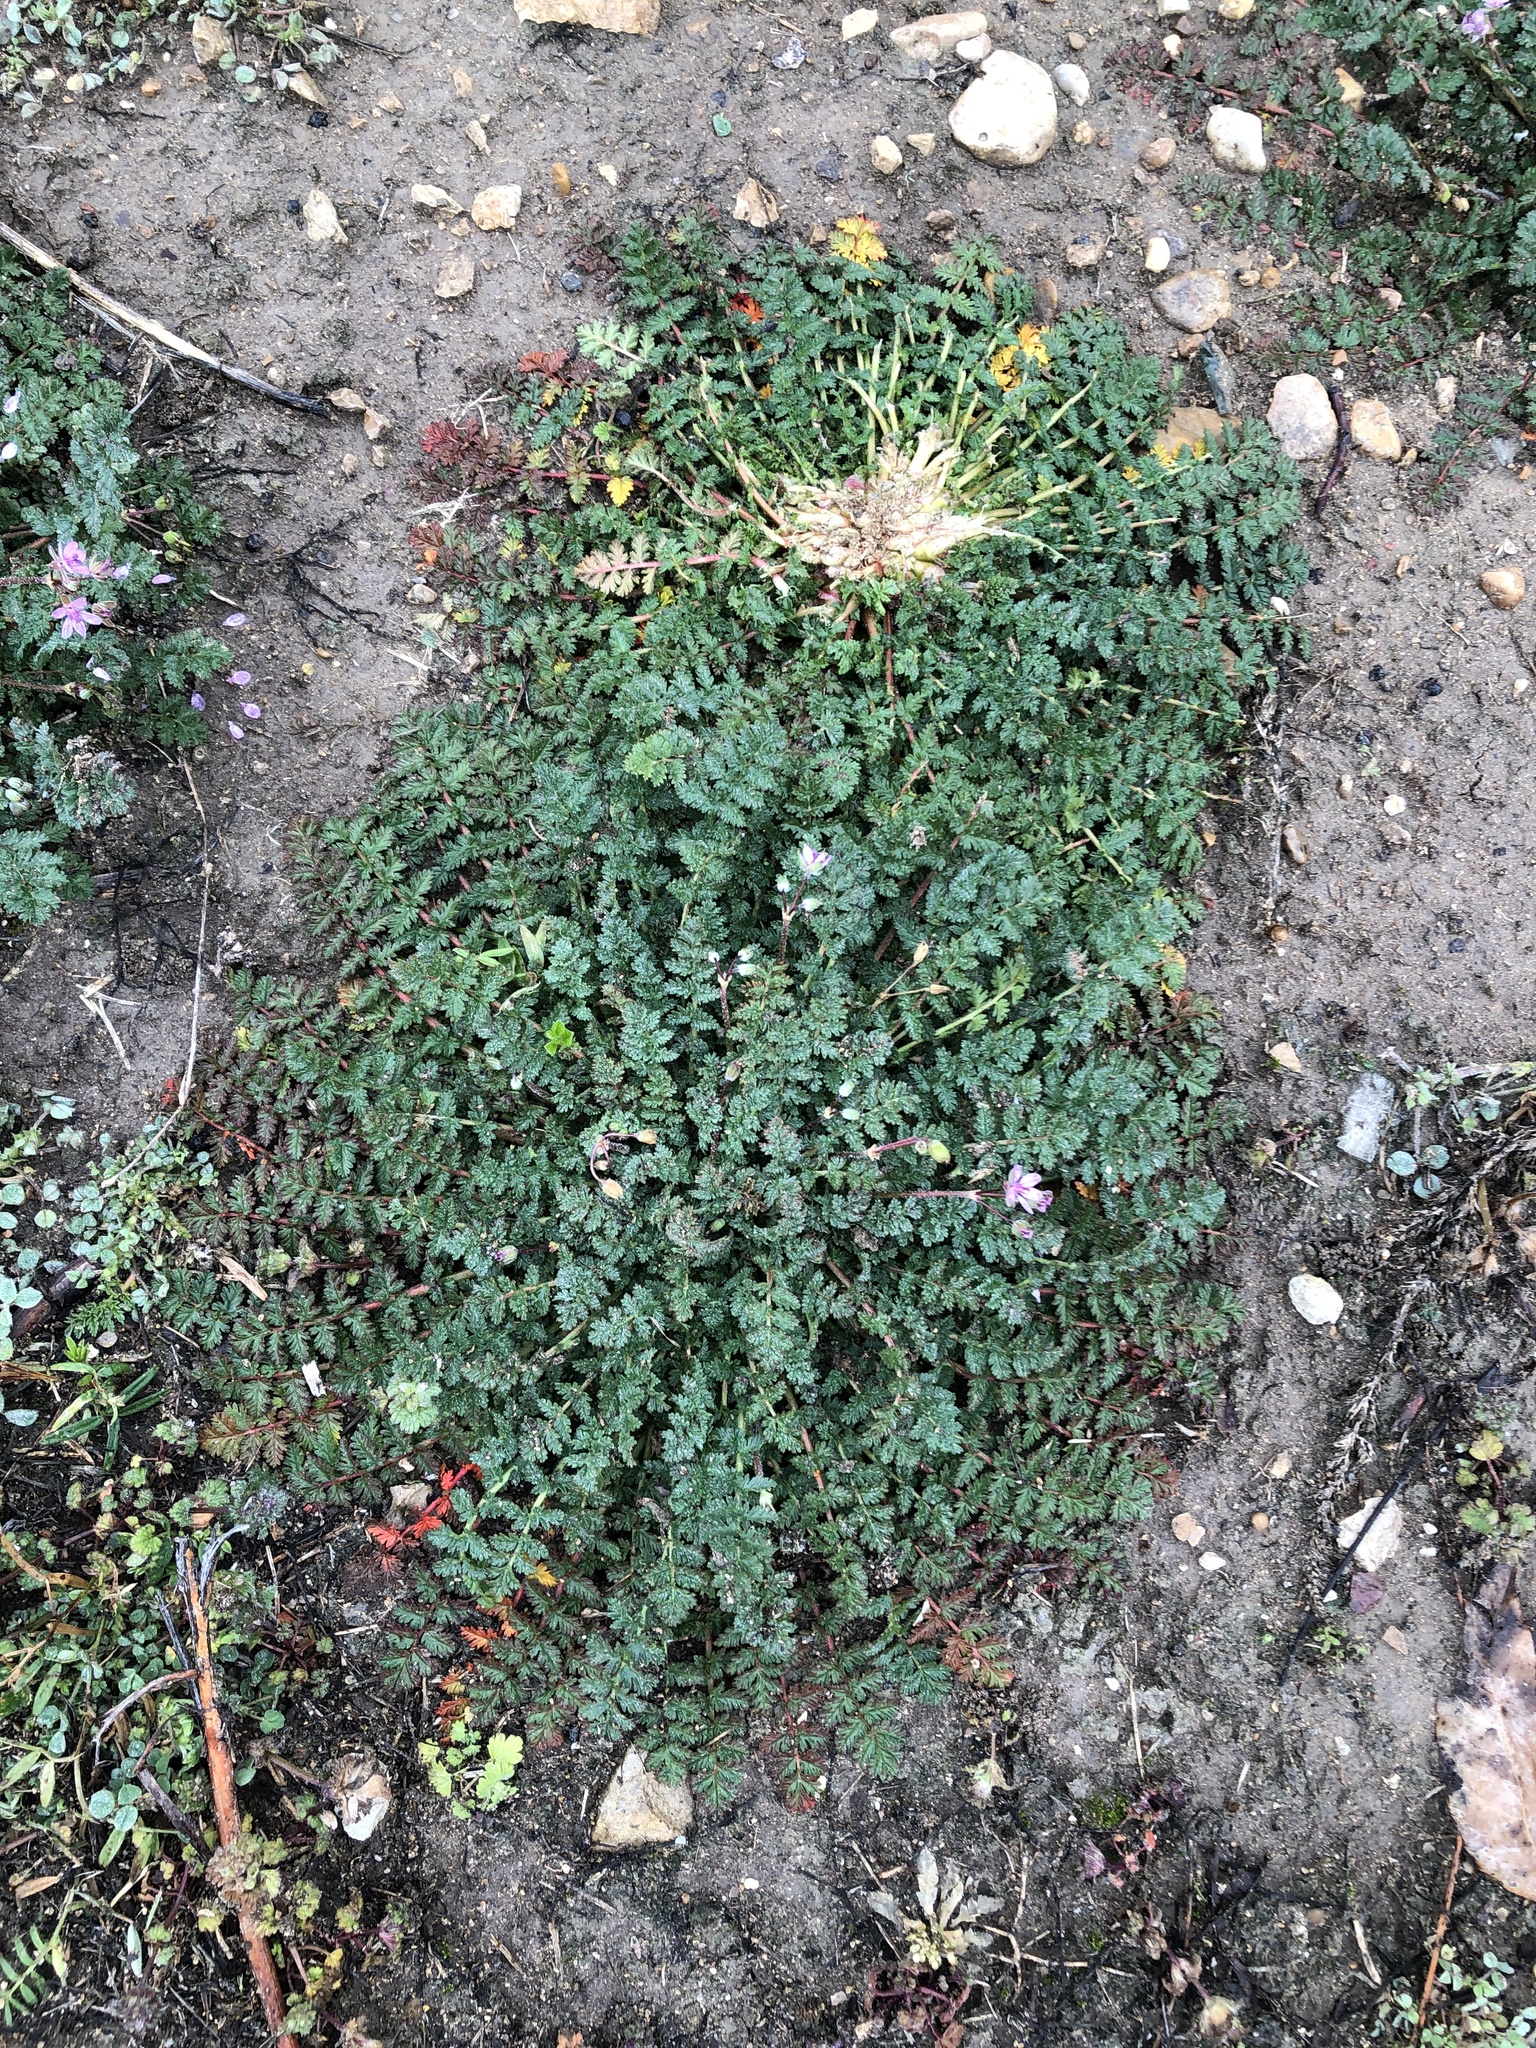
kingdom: Plantae
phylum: Tracheophyta
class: Magnoliopsida
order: Geraniales
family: Geraniaceae
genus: Erodium
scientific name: Erodium cicutarium
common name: Common stork's-bill
